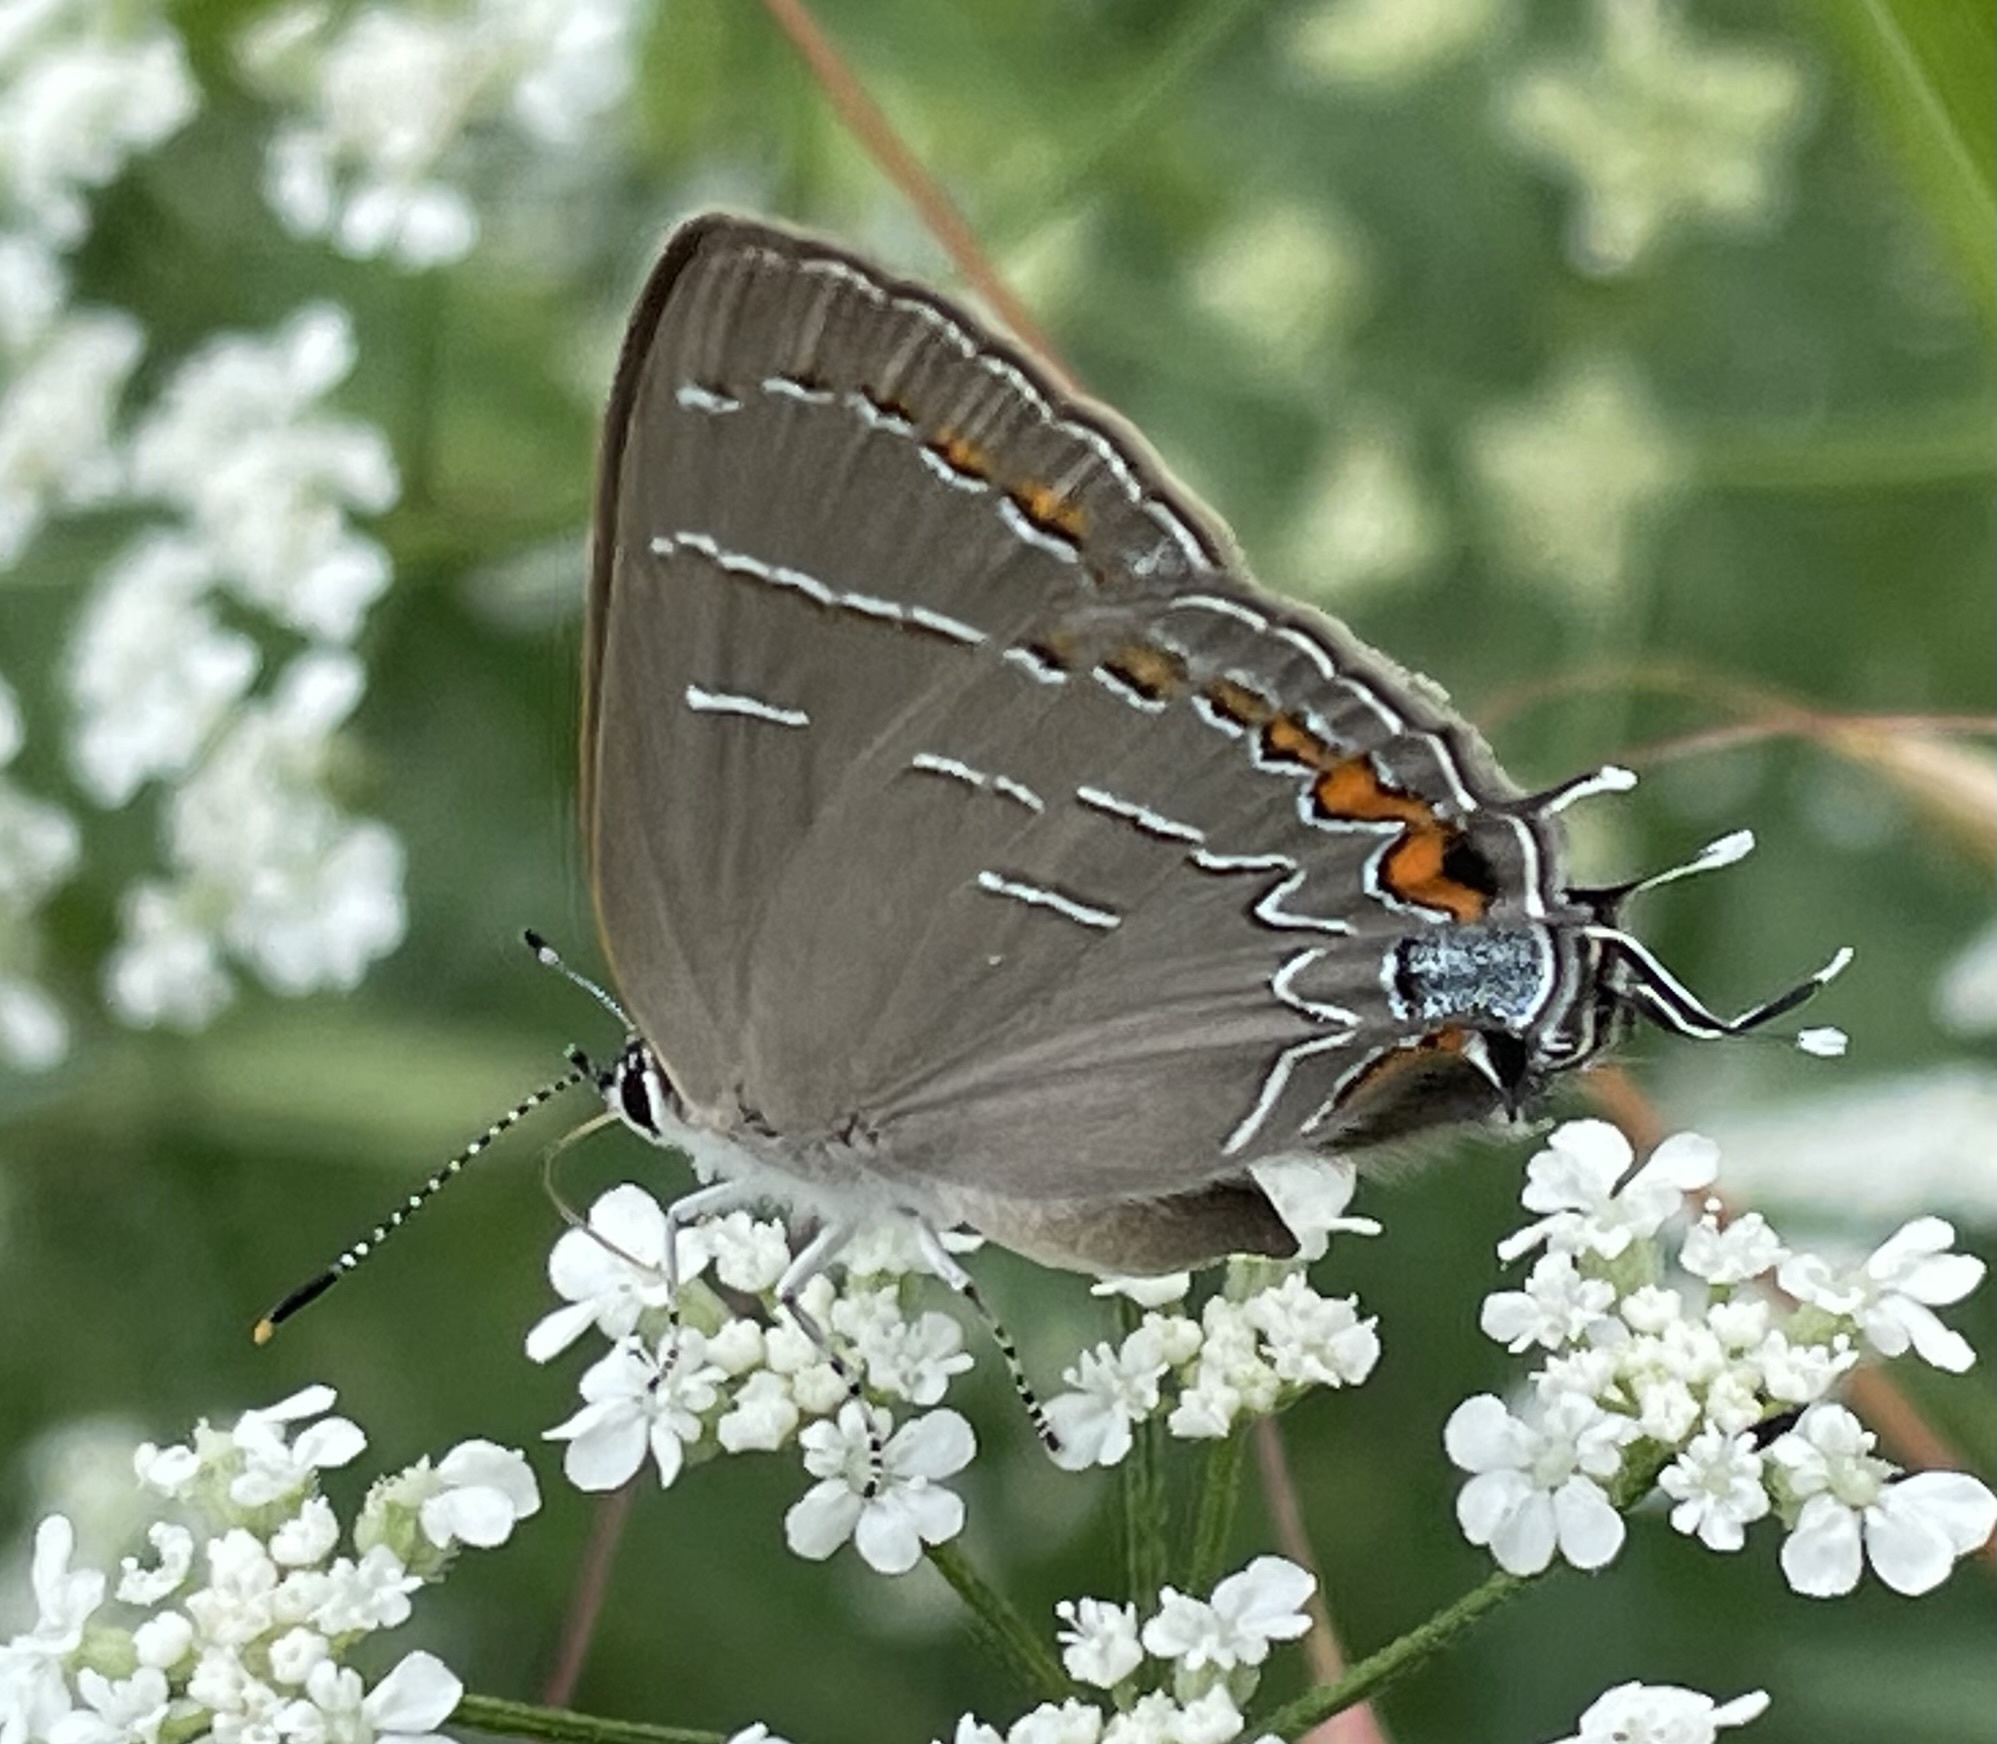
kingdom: Animalia
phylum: Arthropoda
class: Insecta
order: Lepidoptera
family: Lycaenidae
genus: Phaeostrymon
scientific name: Phaeostrymon alcestis
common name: Soapberry hairstreak
